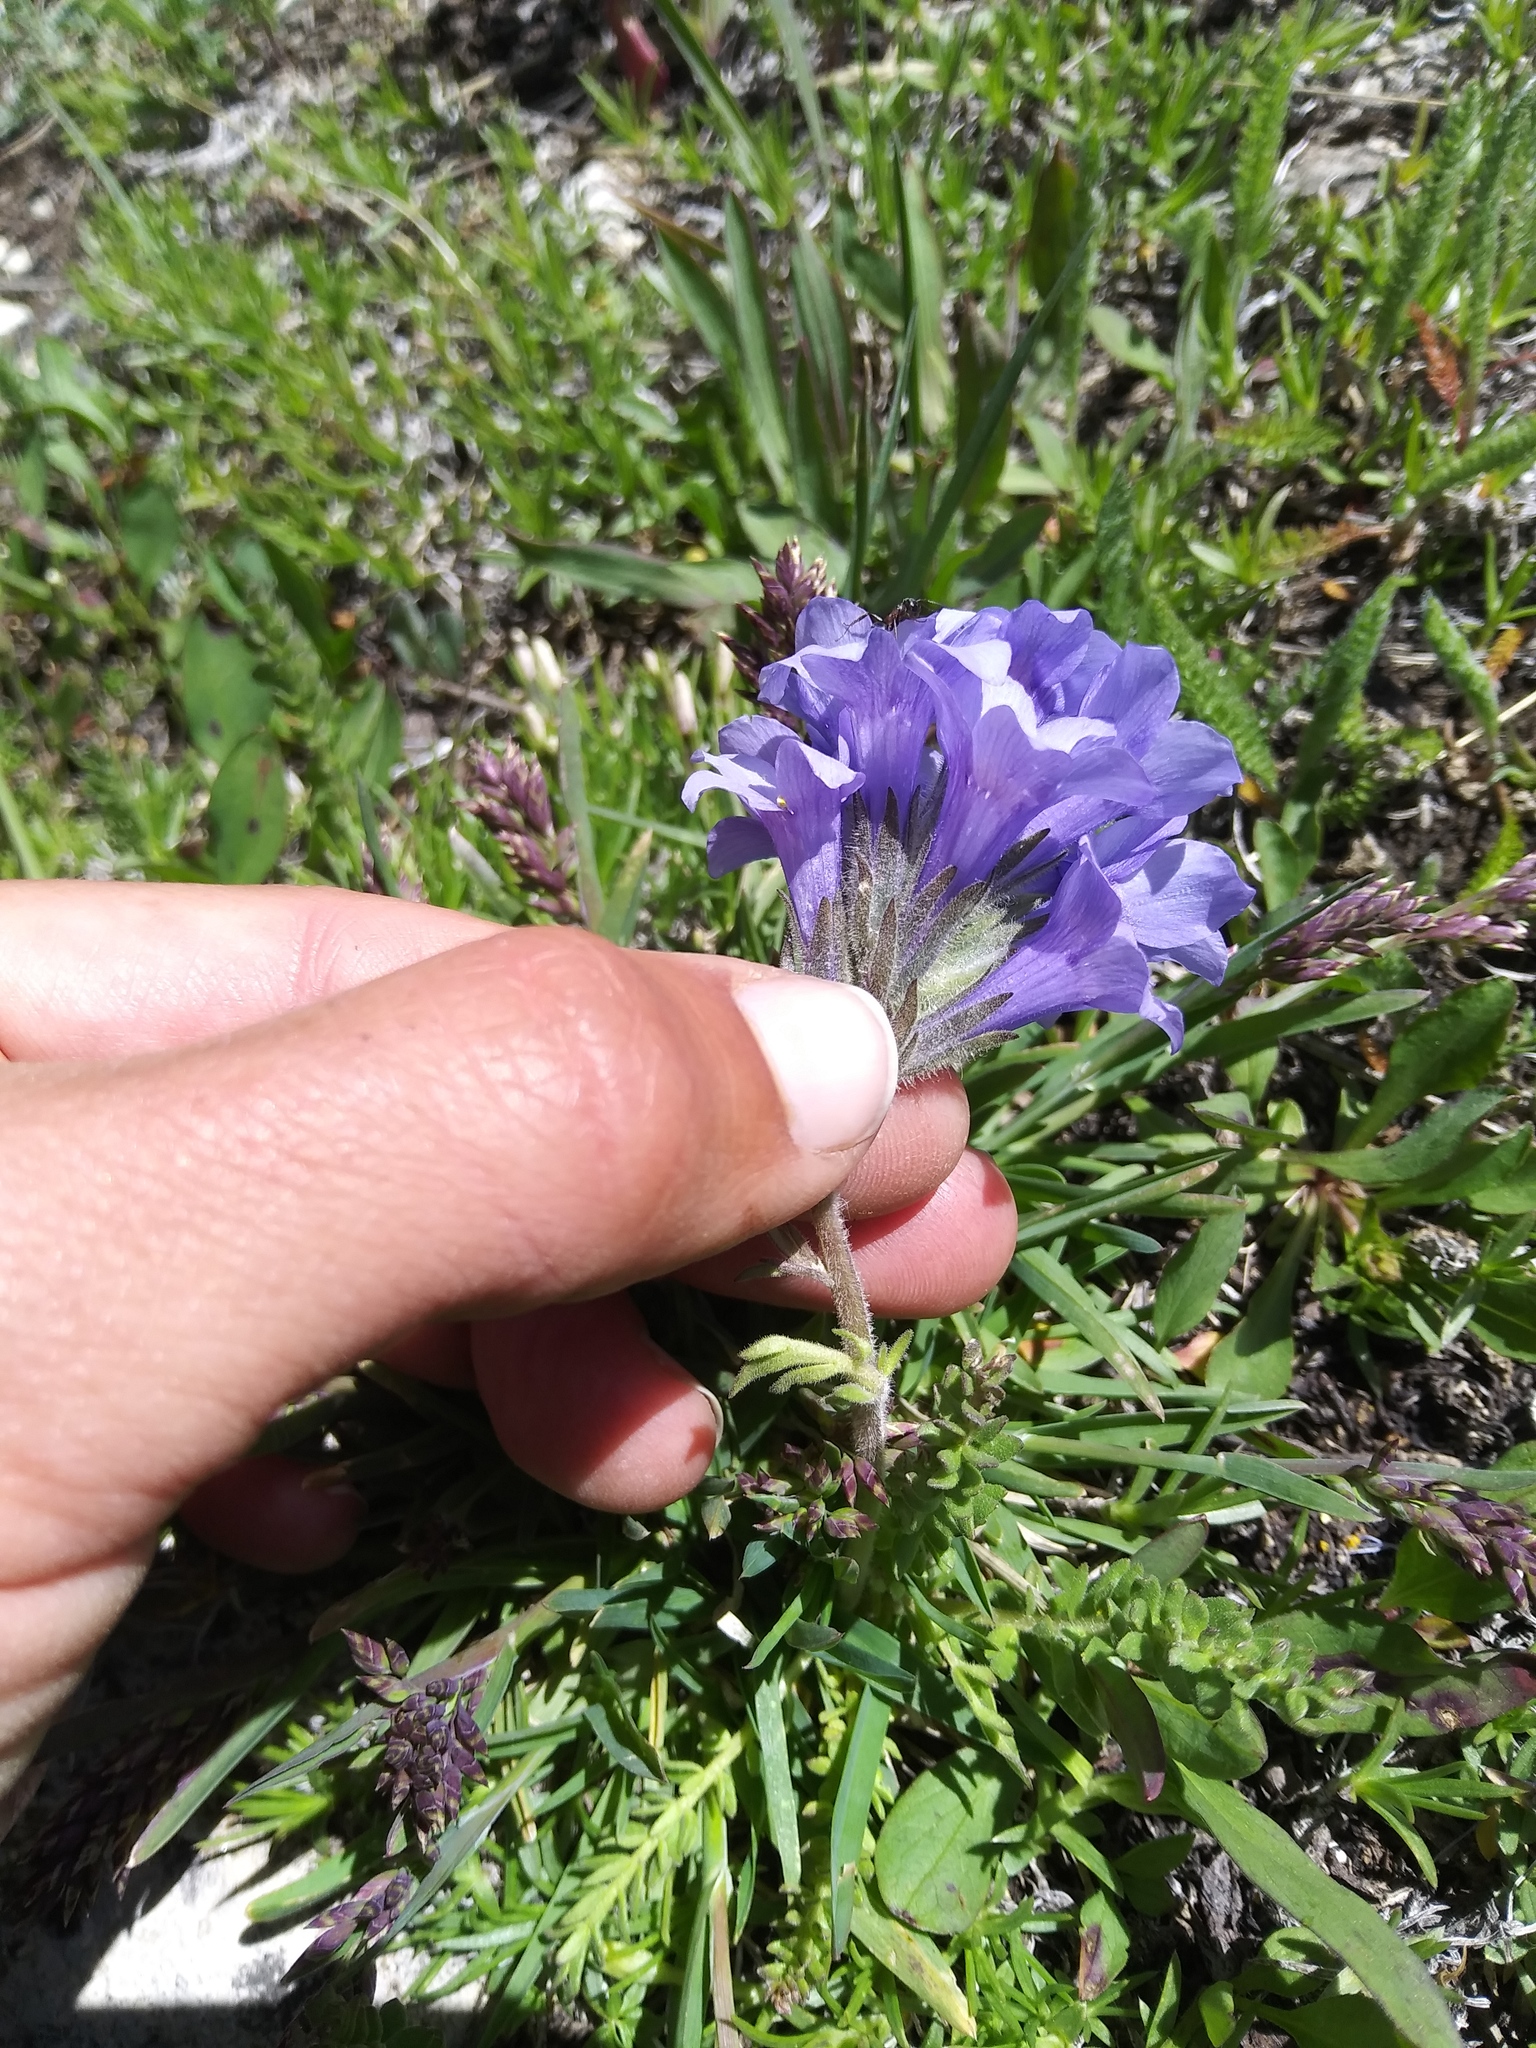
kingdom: Plantae
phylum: Tracheophyta
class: Magnoliopsida
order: Ericales
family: Polemoniaceae
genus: Polemonium
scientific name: Polemonium viscosum
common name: Skunk jacob's-ladder
